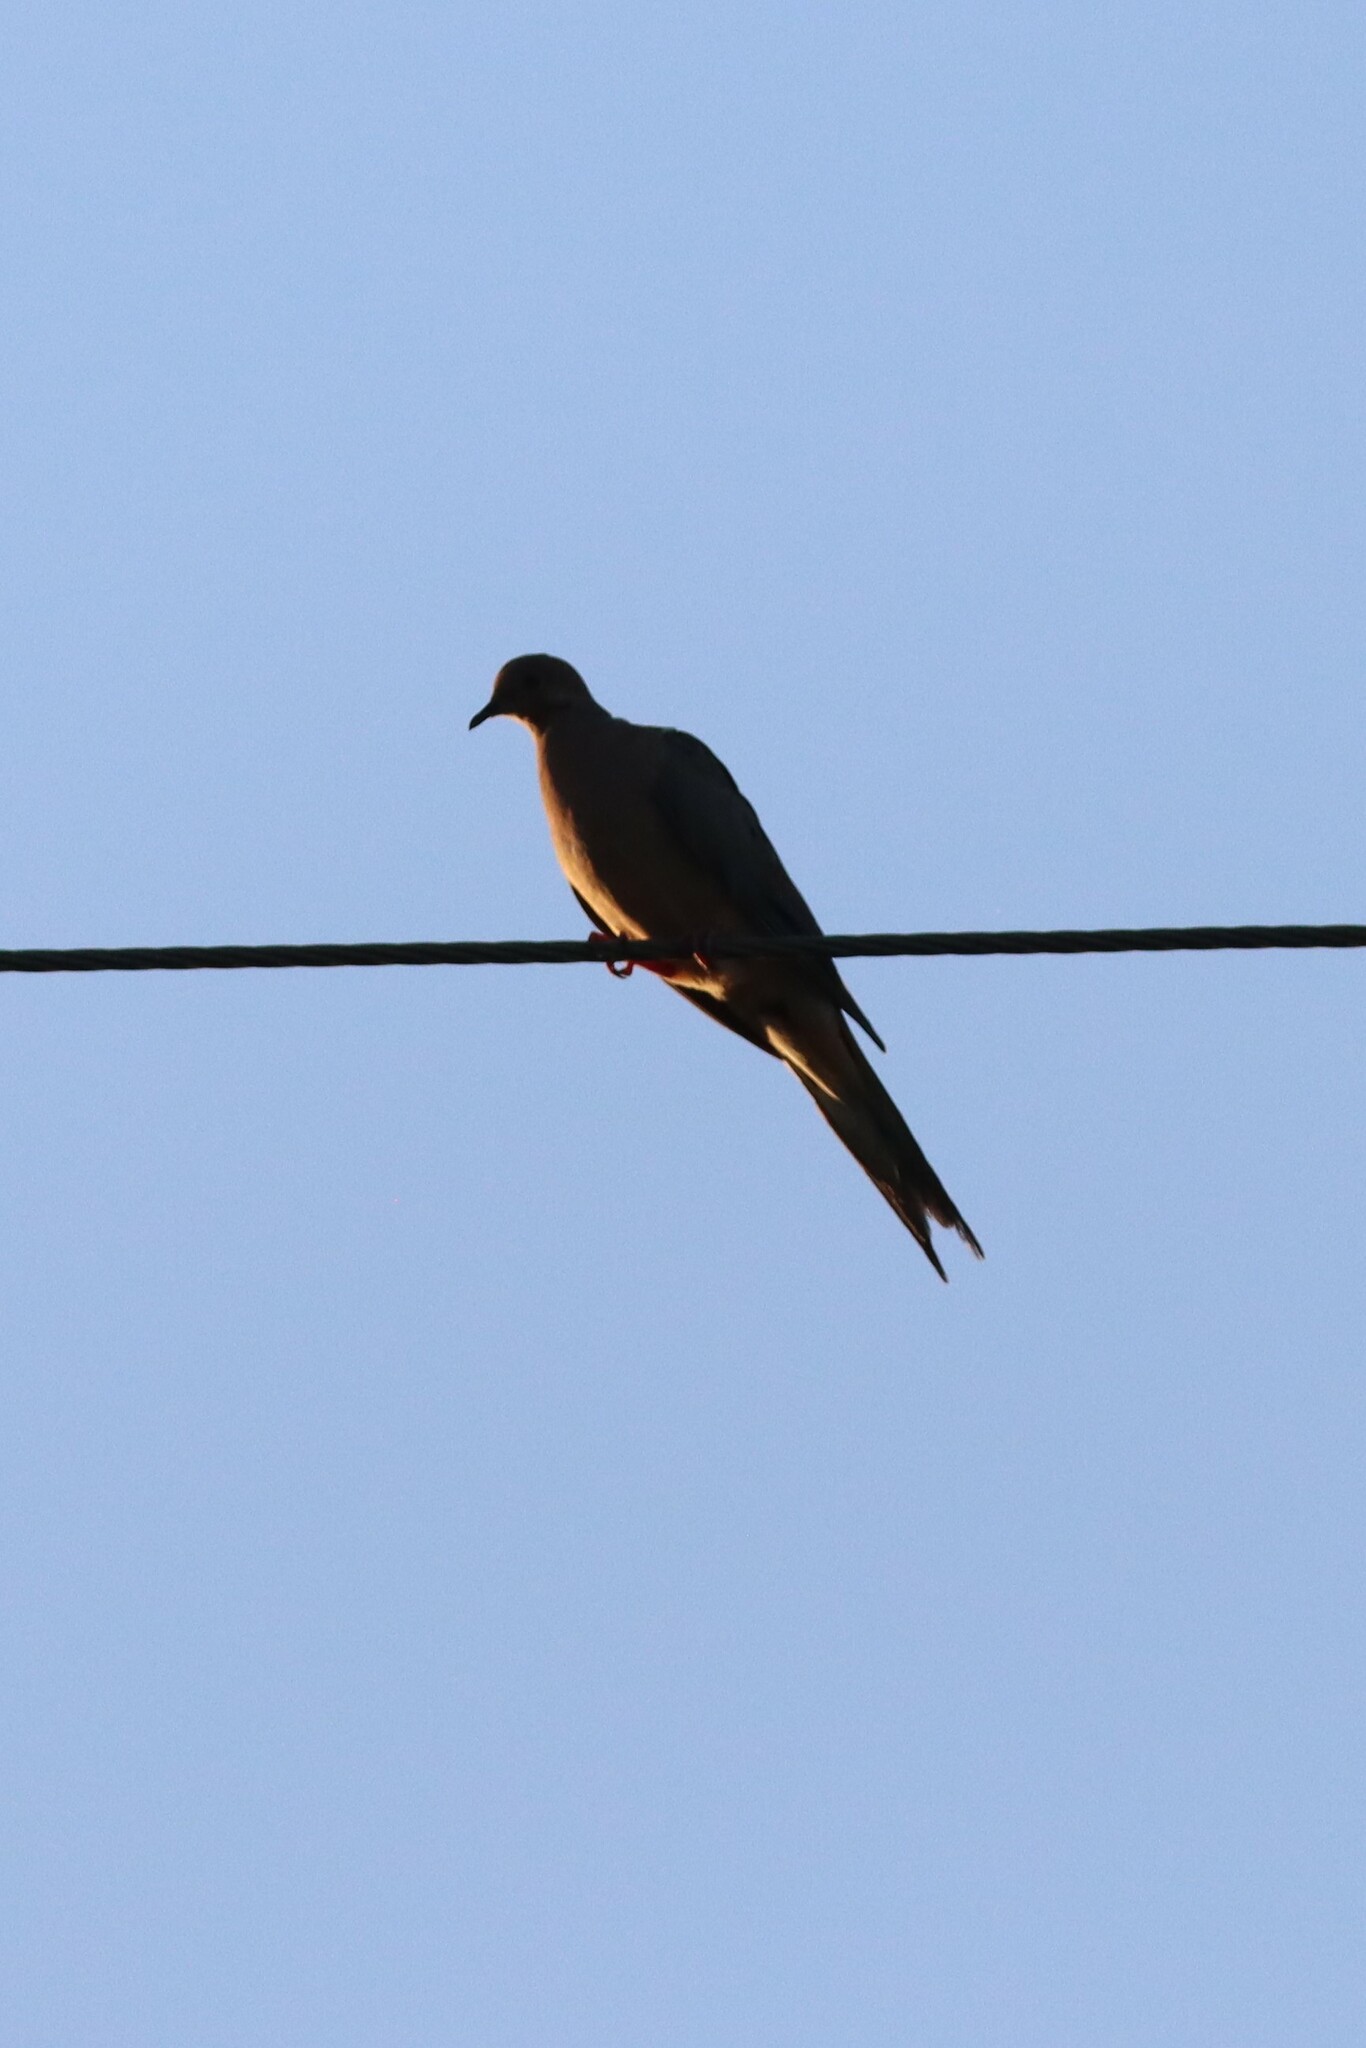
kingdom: Animalia
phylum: Chordata
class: Aves
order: Columbiformes
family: Columbidae
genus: Zenaida
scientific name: Zenaida macroura
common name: Mourning dove
